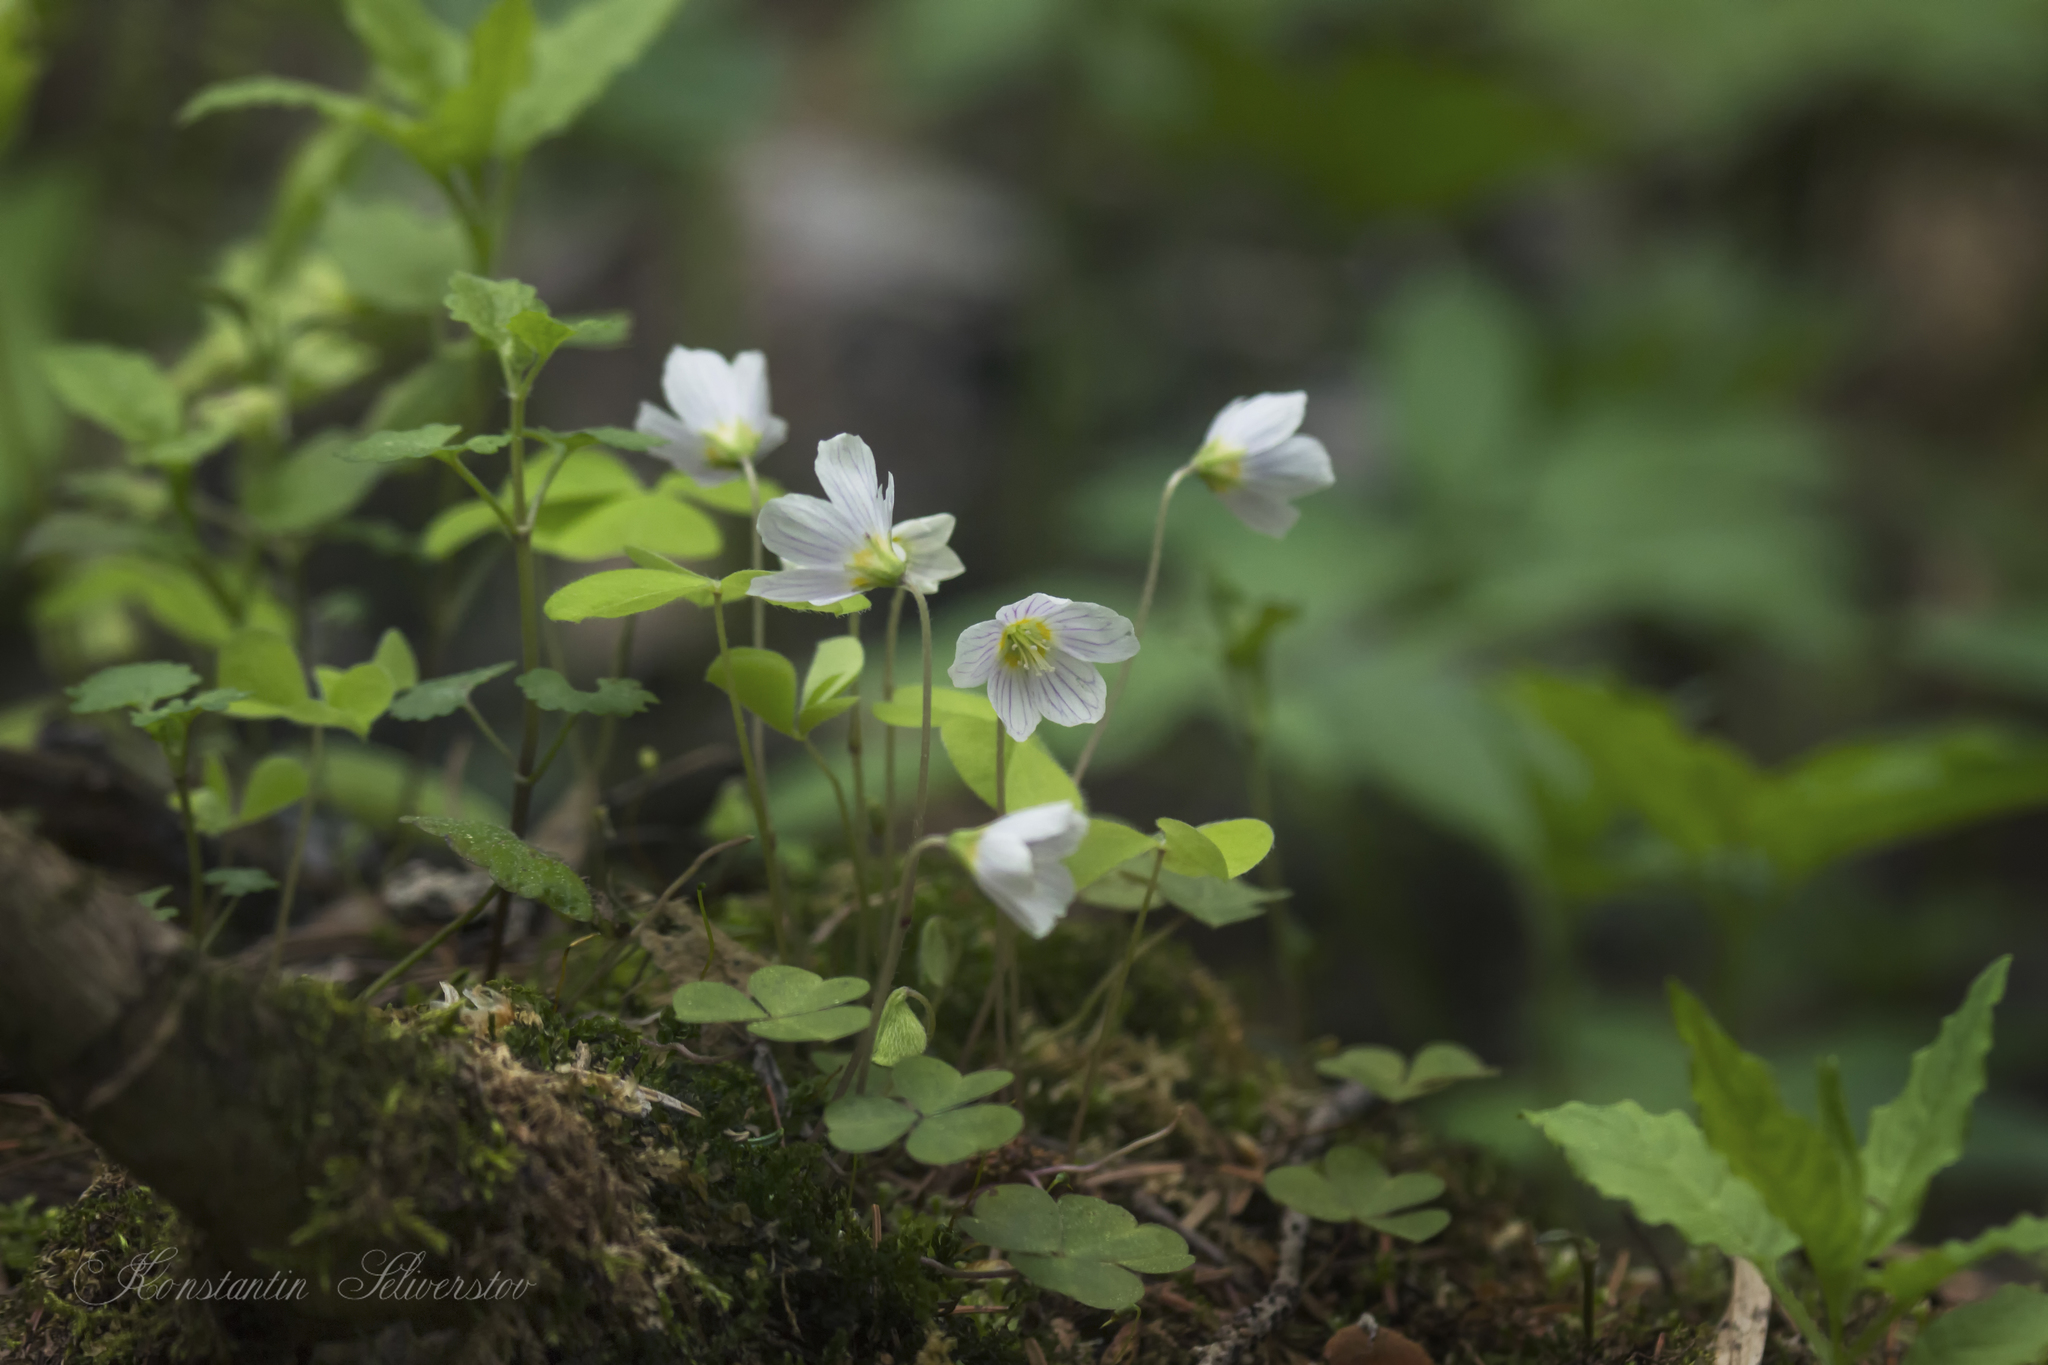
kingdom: Plantae
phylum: Tracheophyta
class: Magnoliopsida
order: Oxalidales
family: Oxalidaceae
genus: Oxalis
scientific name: Oxalis acetosella
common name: Wood-sorrel
